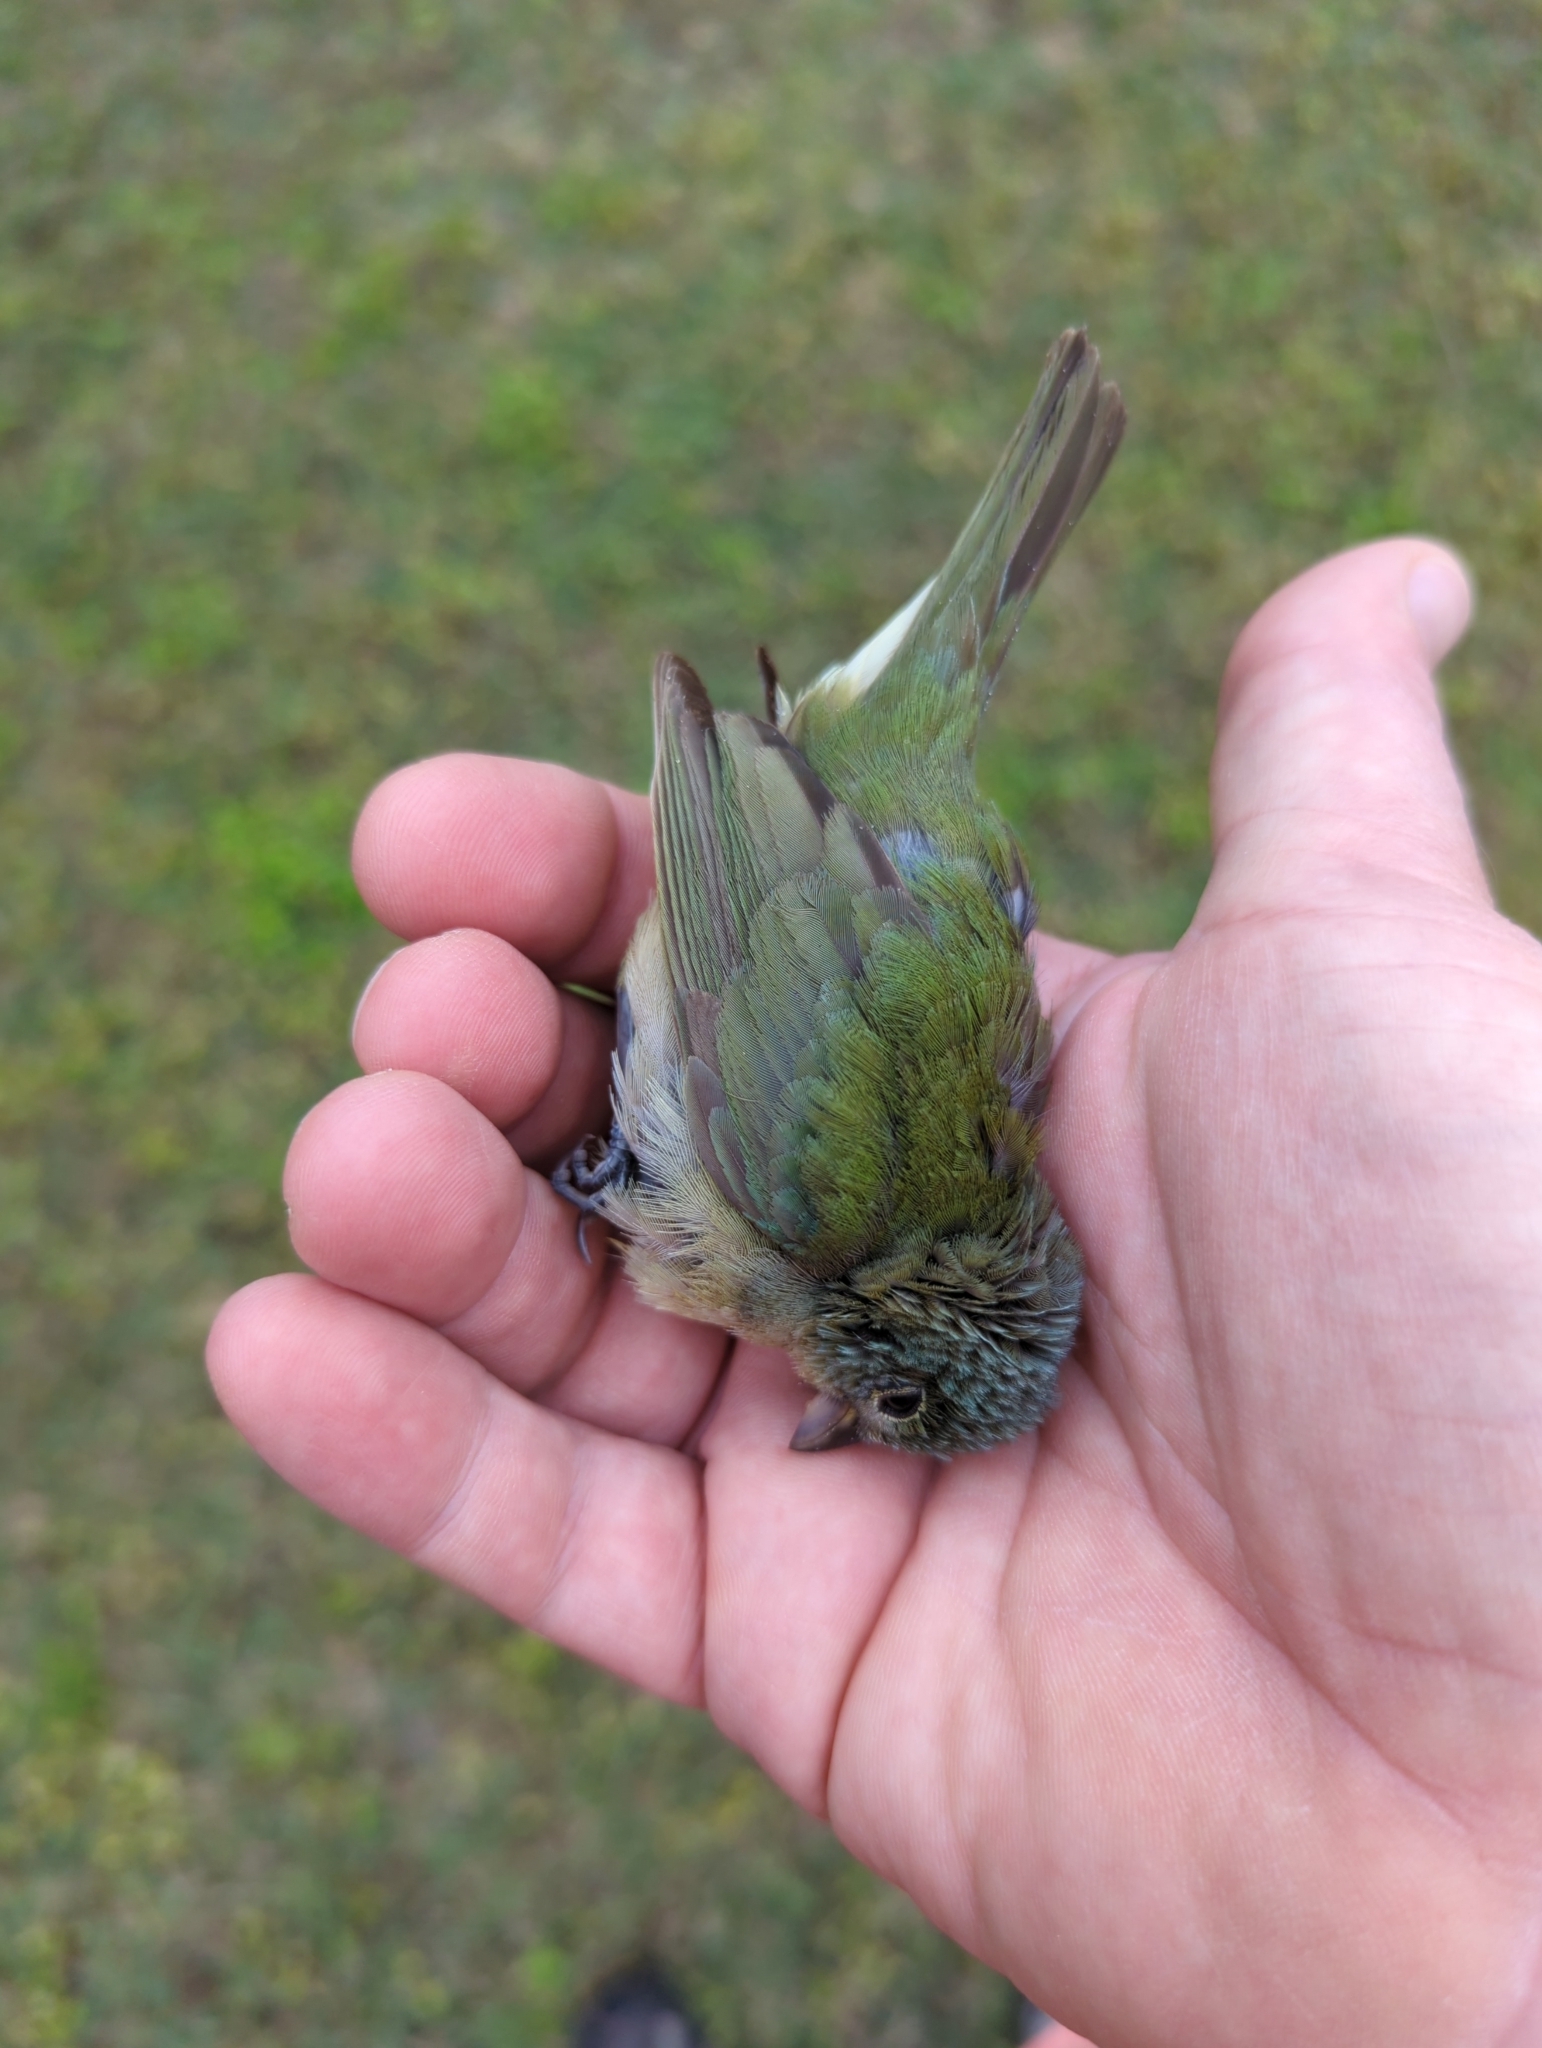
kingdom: Animalia
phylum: Chordata
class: Aves
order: Passeriformes
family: Cardinalidae
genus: Passerina
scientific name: Passerina ciris
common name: Painted bunting
